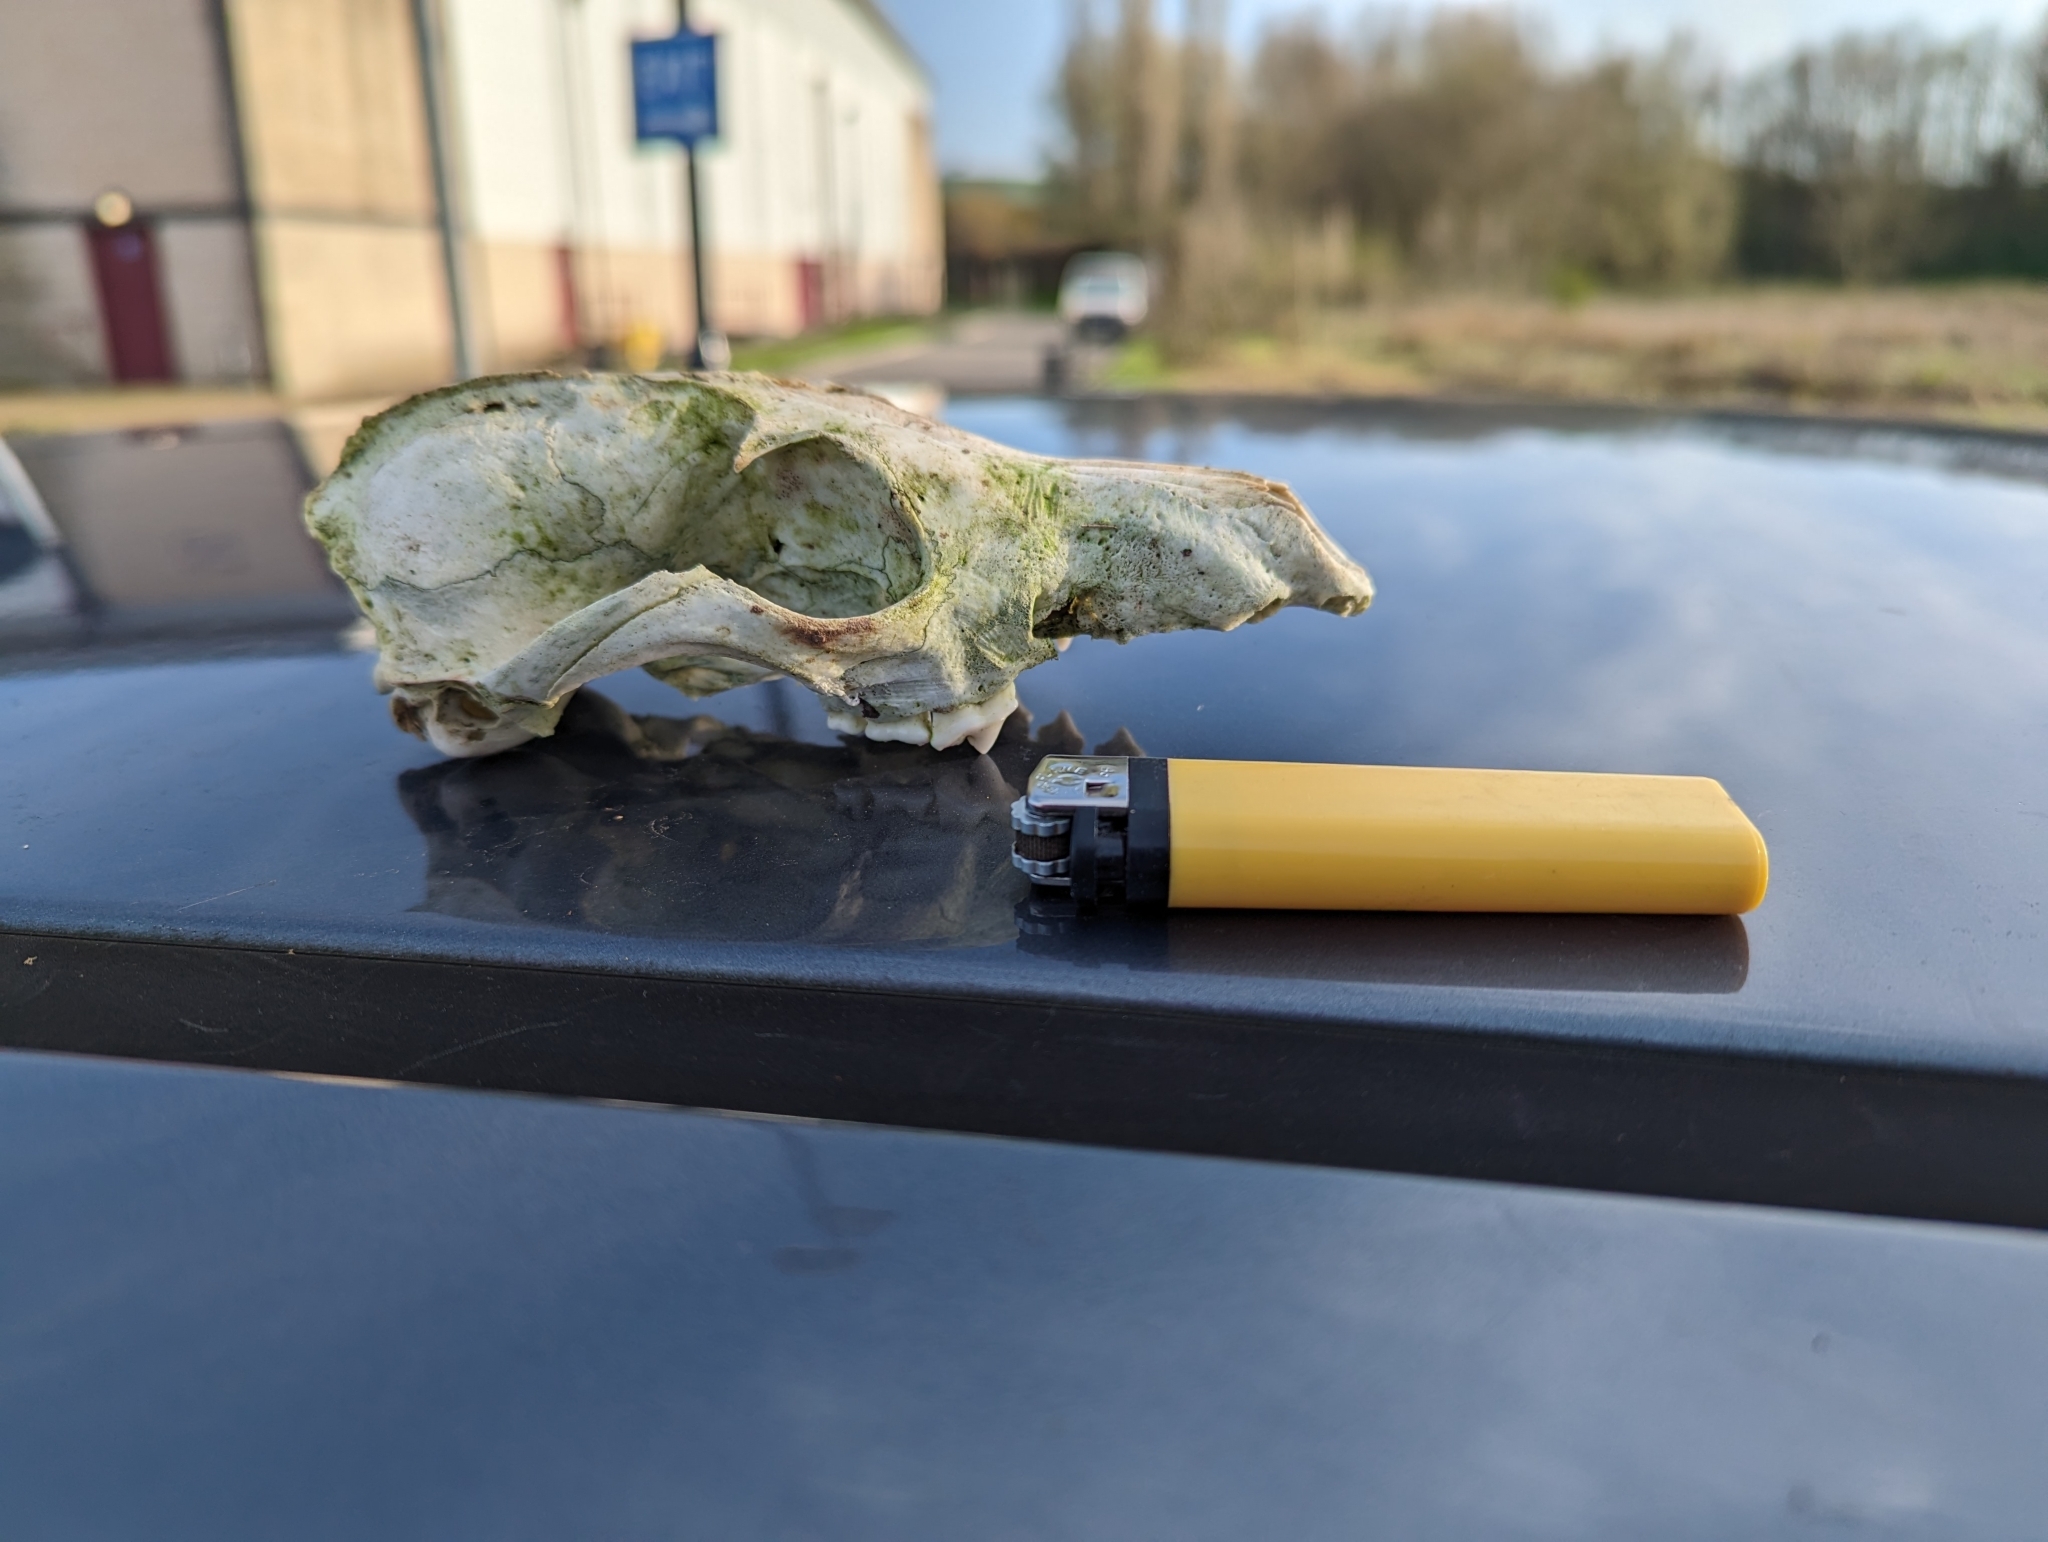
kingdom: Animalia
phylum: Chordata
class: Mammalia
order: Carnivora
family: Canidae
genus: Vulpes
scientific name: Vulpes vulpes
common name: Red fox
